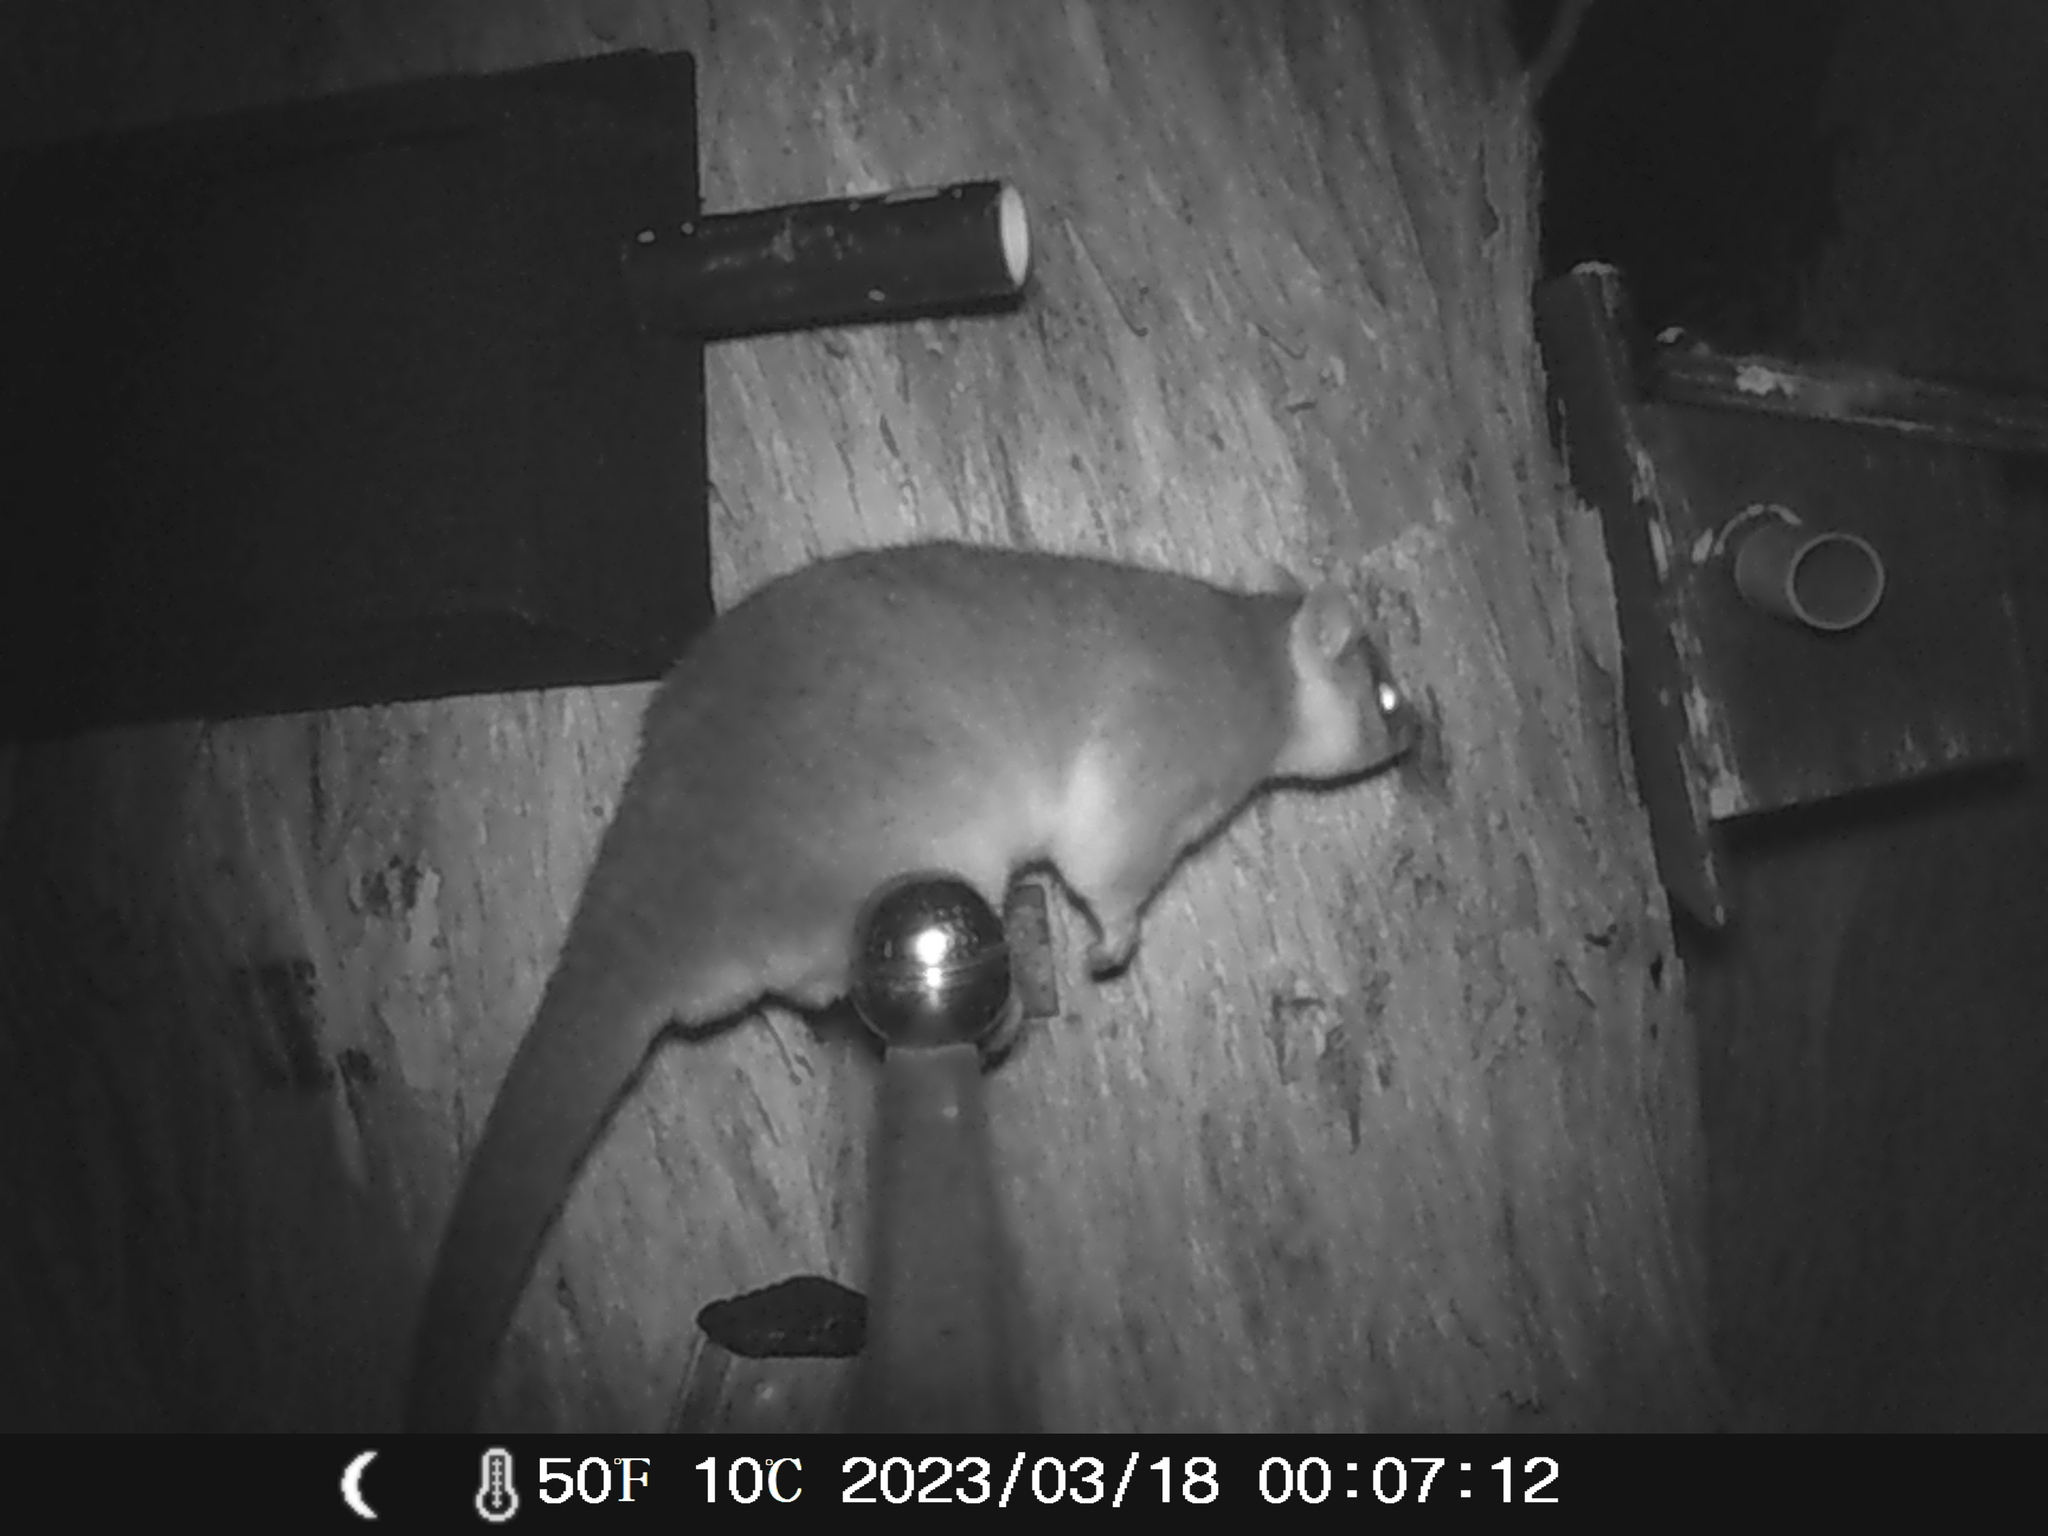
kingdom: Animalia
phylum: Chordata
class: Mammalia
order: Diprotodontia
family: Pseudocheiridae
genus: Pseudocheirus
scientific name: Pseudocheirus peregrinus
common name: Common ringtail possum
